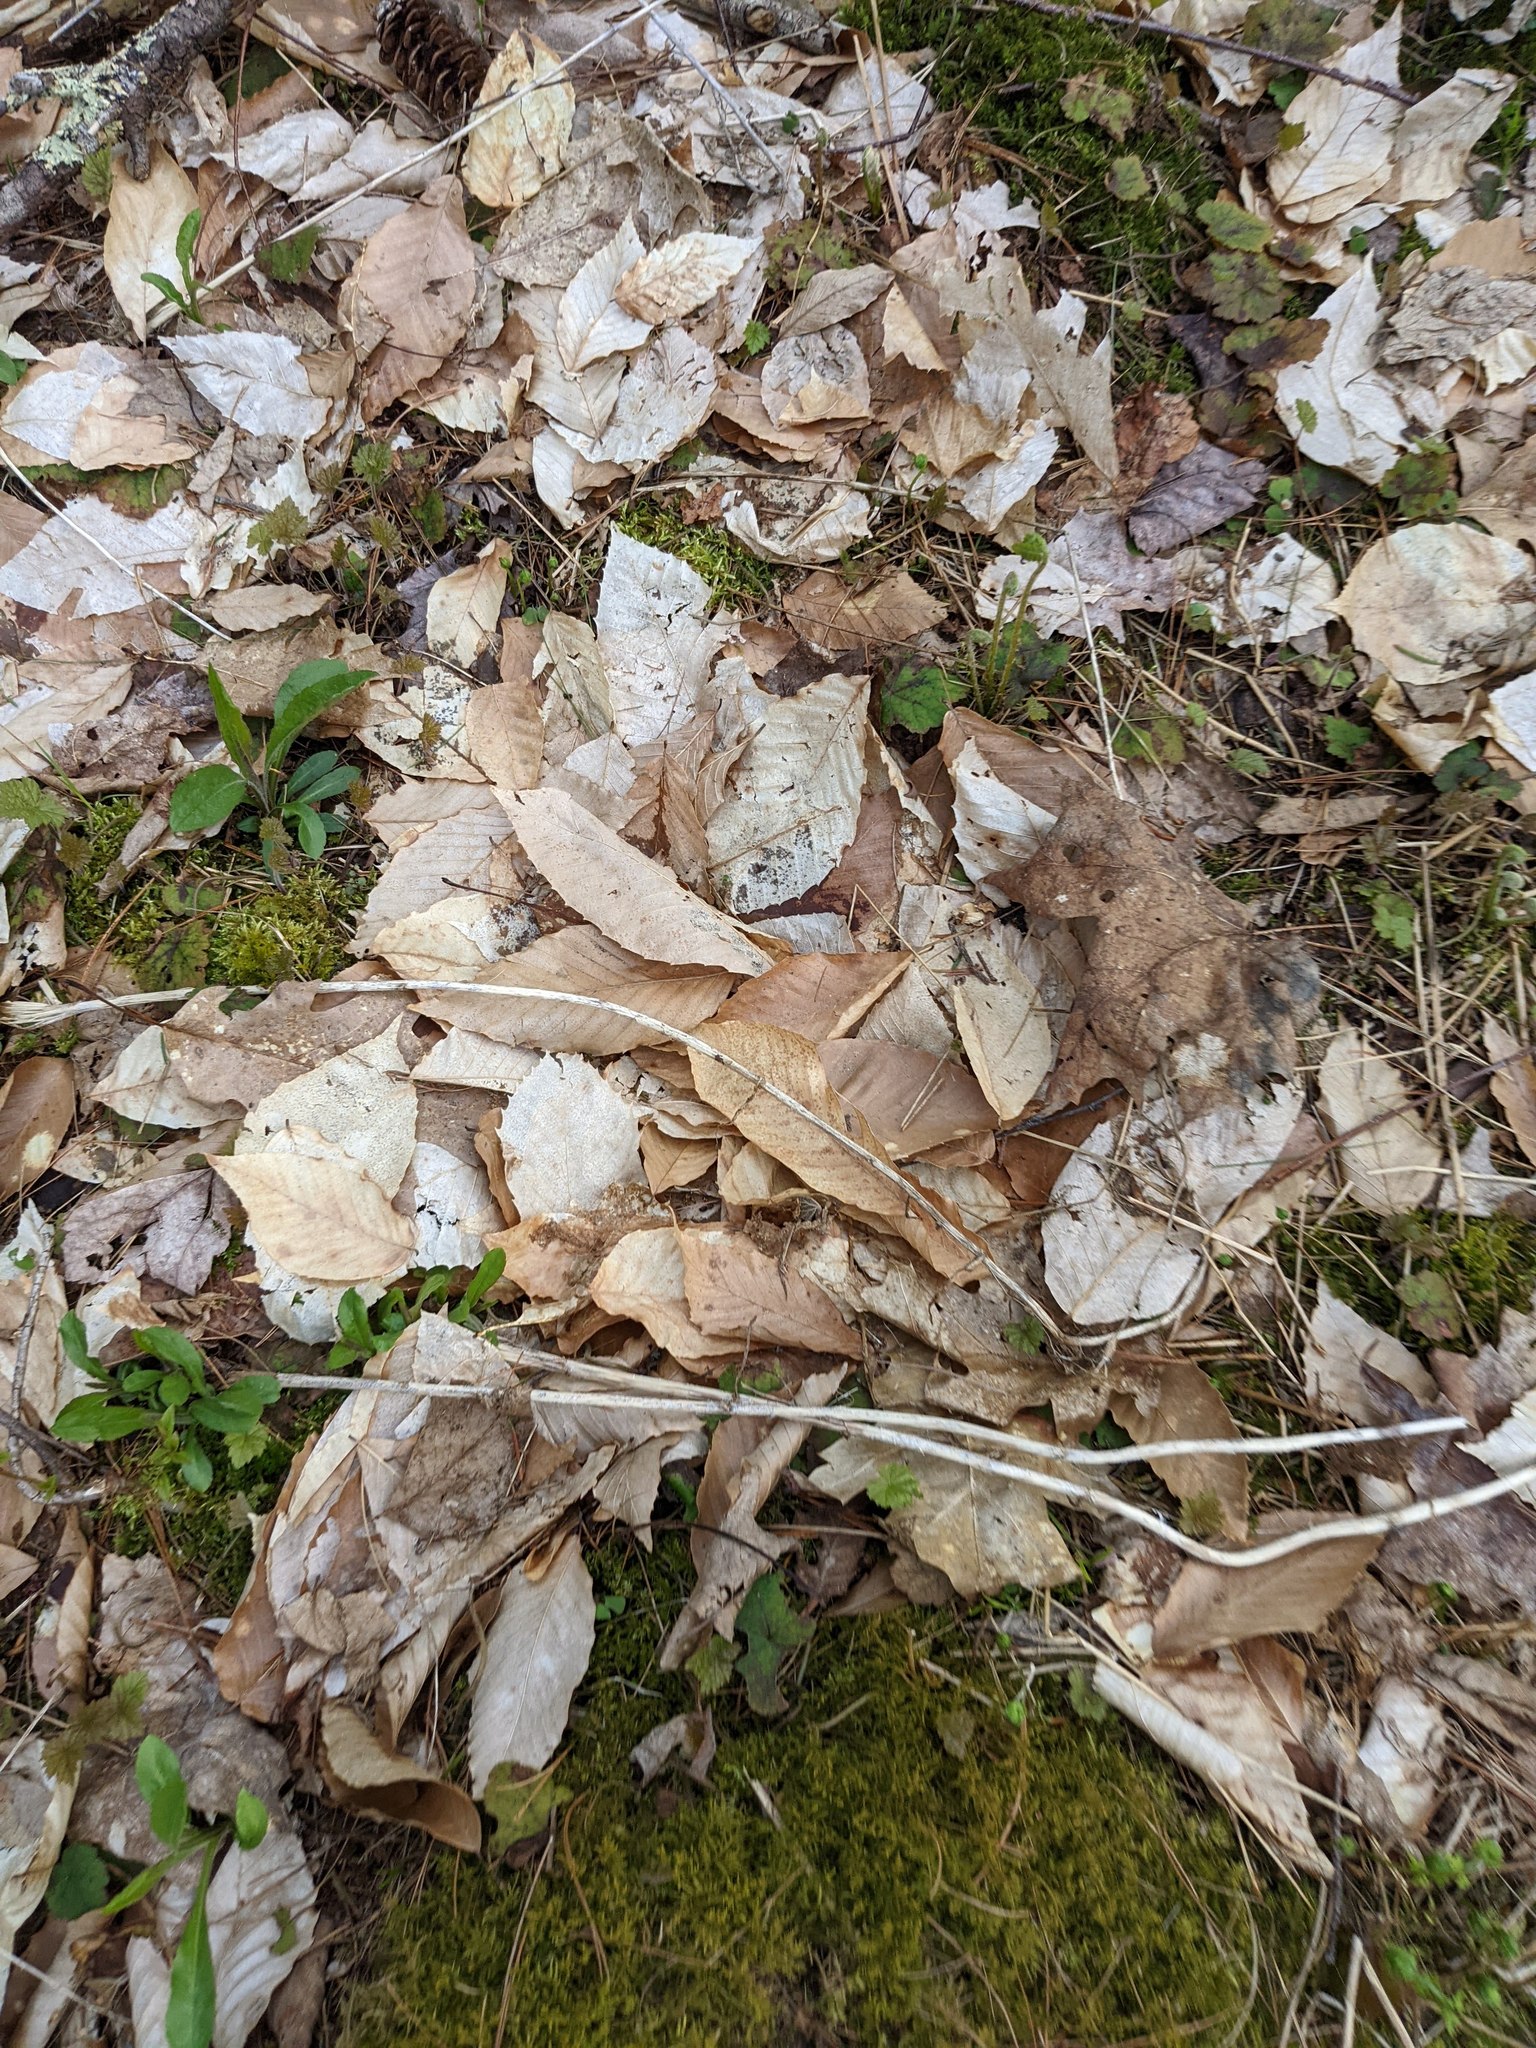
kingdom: Plantae
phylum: Tracheophyta
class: Magnoliopsida
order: Fagales
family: Fagaceae
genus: Fagus
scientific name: Fagus grandifolia
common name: American beech
